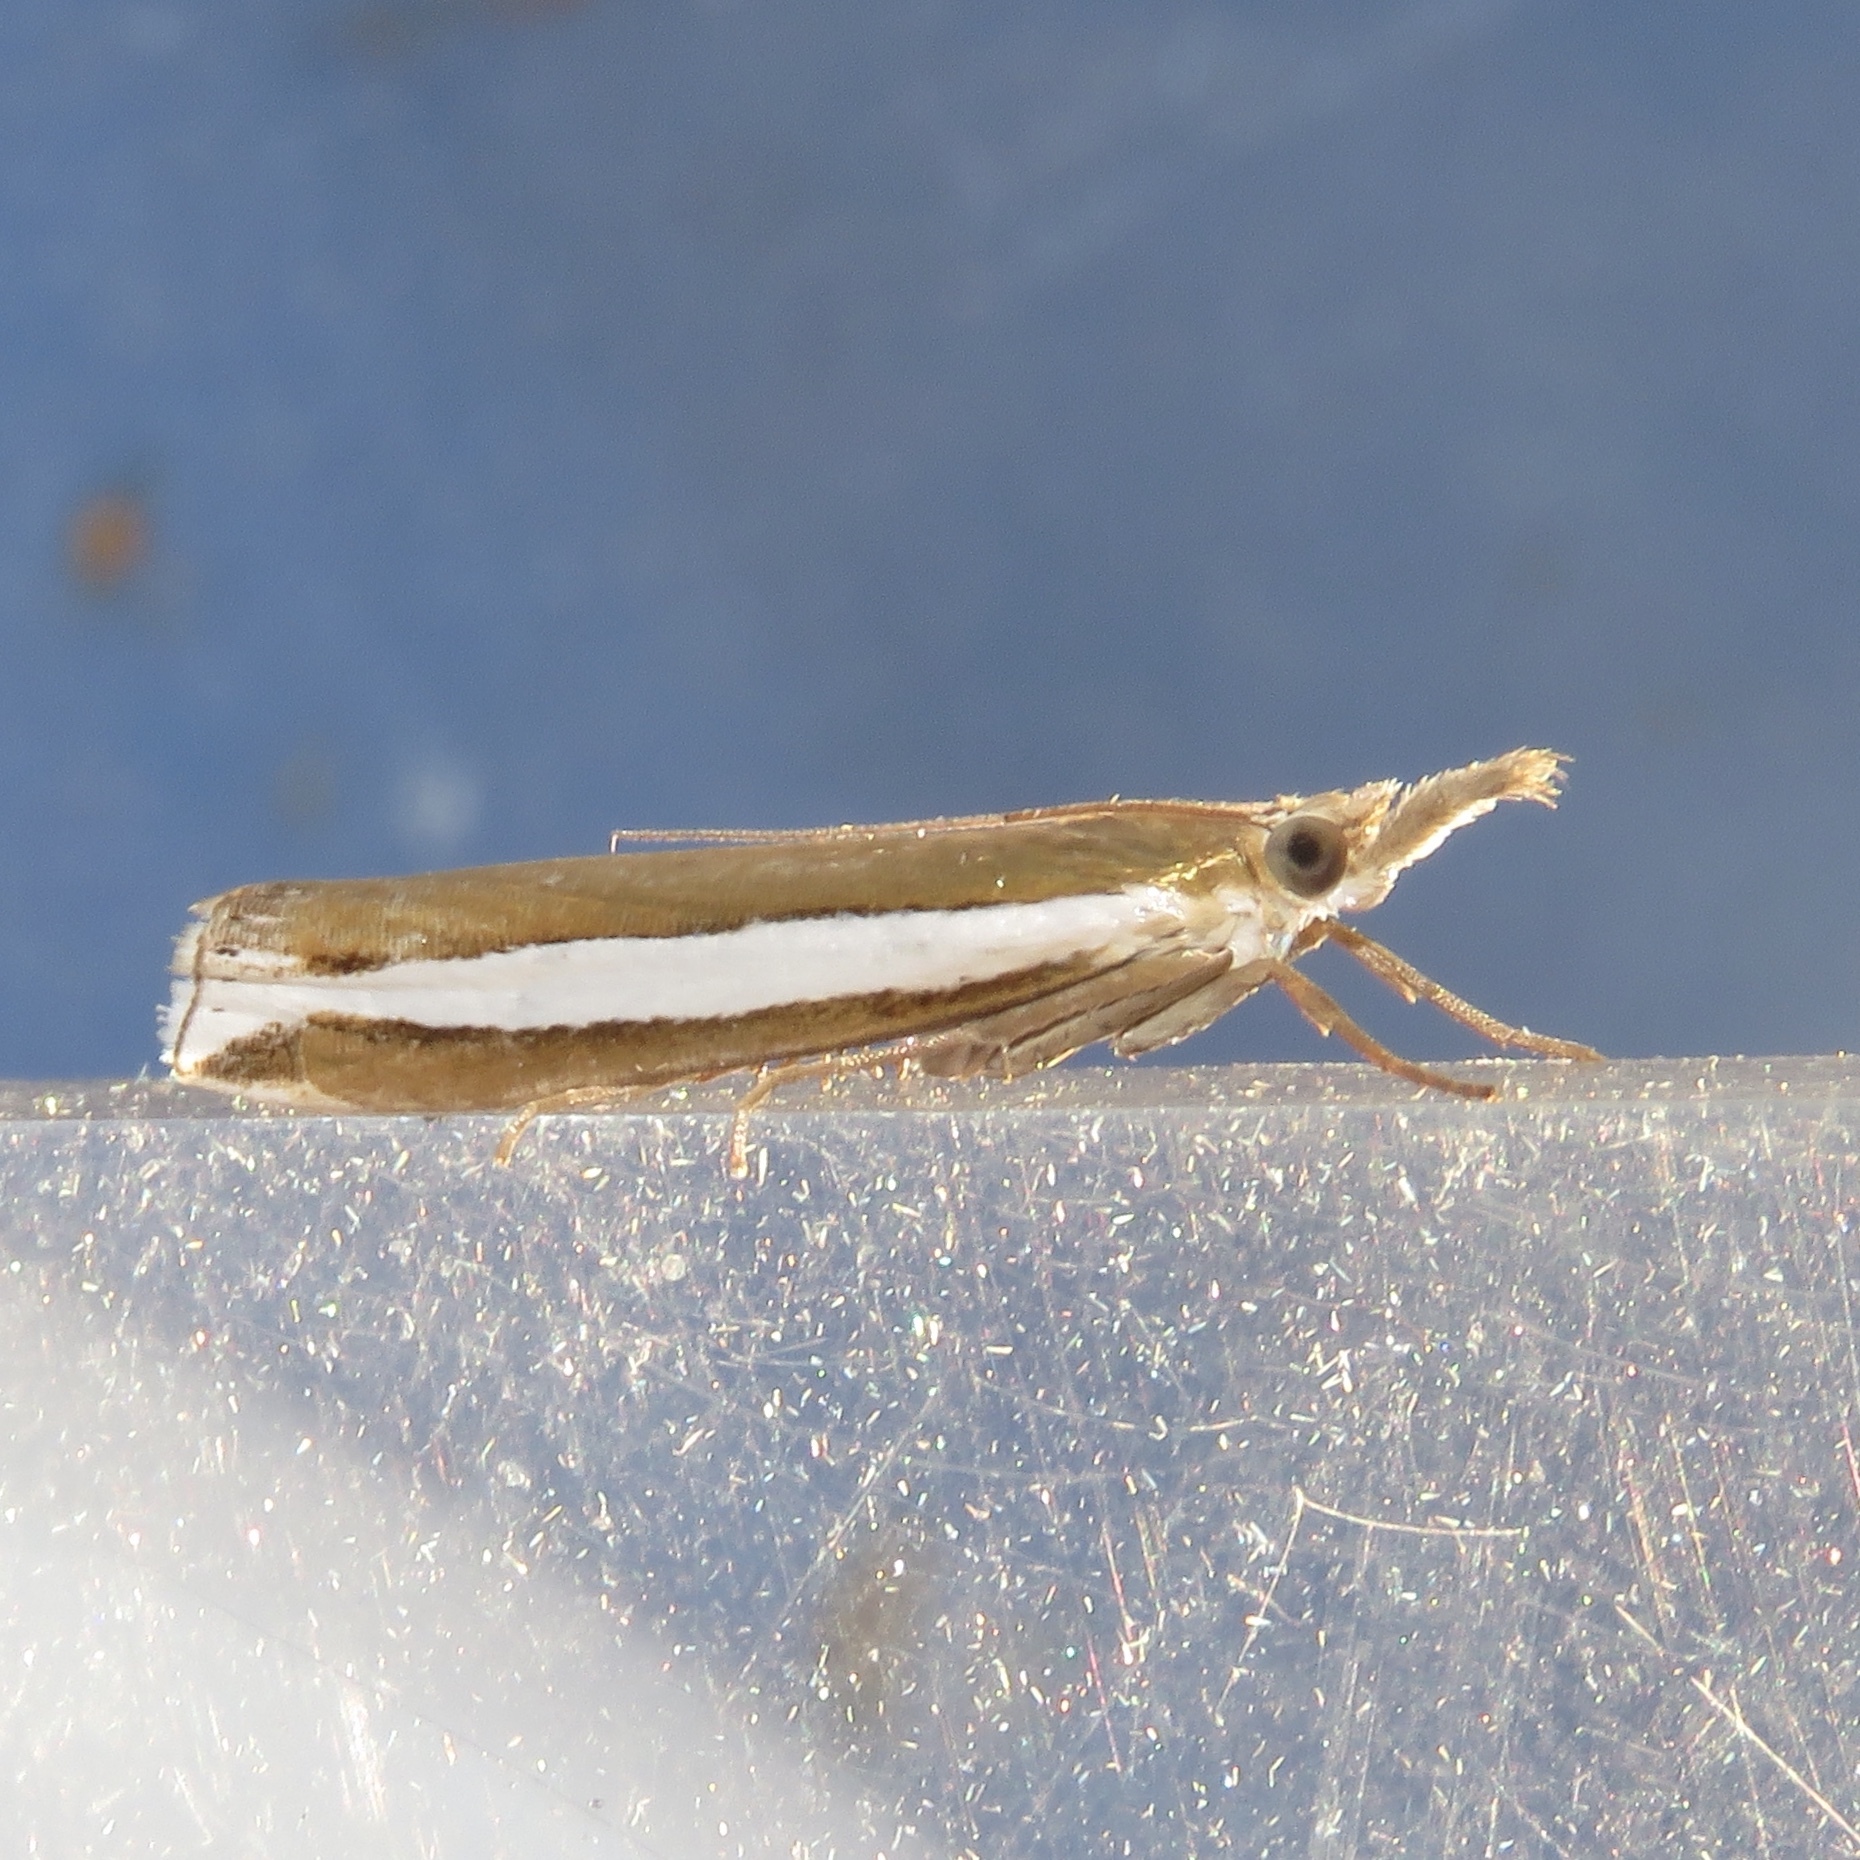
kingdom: Animalia
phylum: Arthropoda
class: Insecta
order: Lepidoptera
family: Crambidae
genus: Crambus
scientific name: Crambus unistriatellus
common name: Wide-stripe grass-veneer moth
